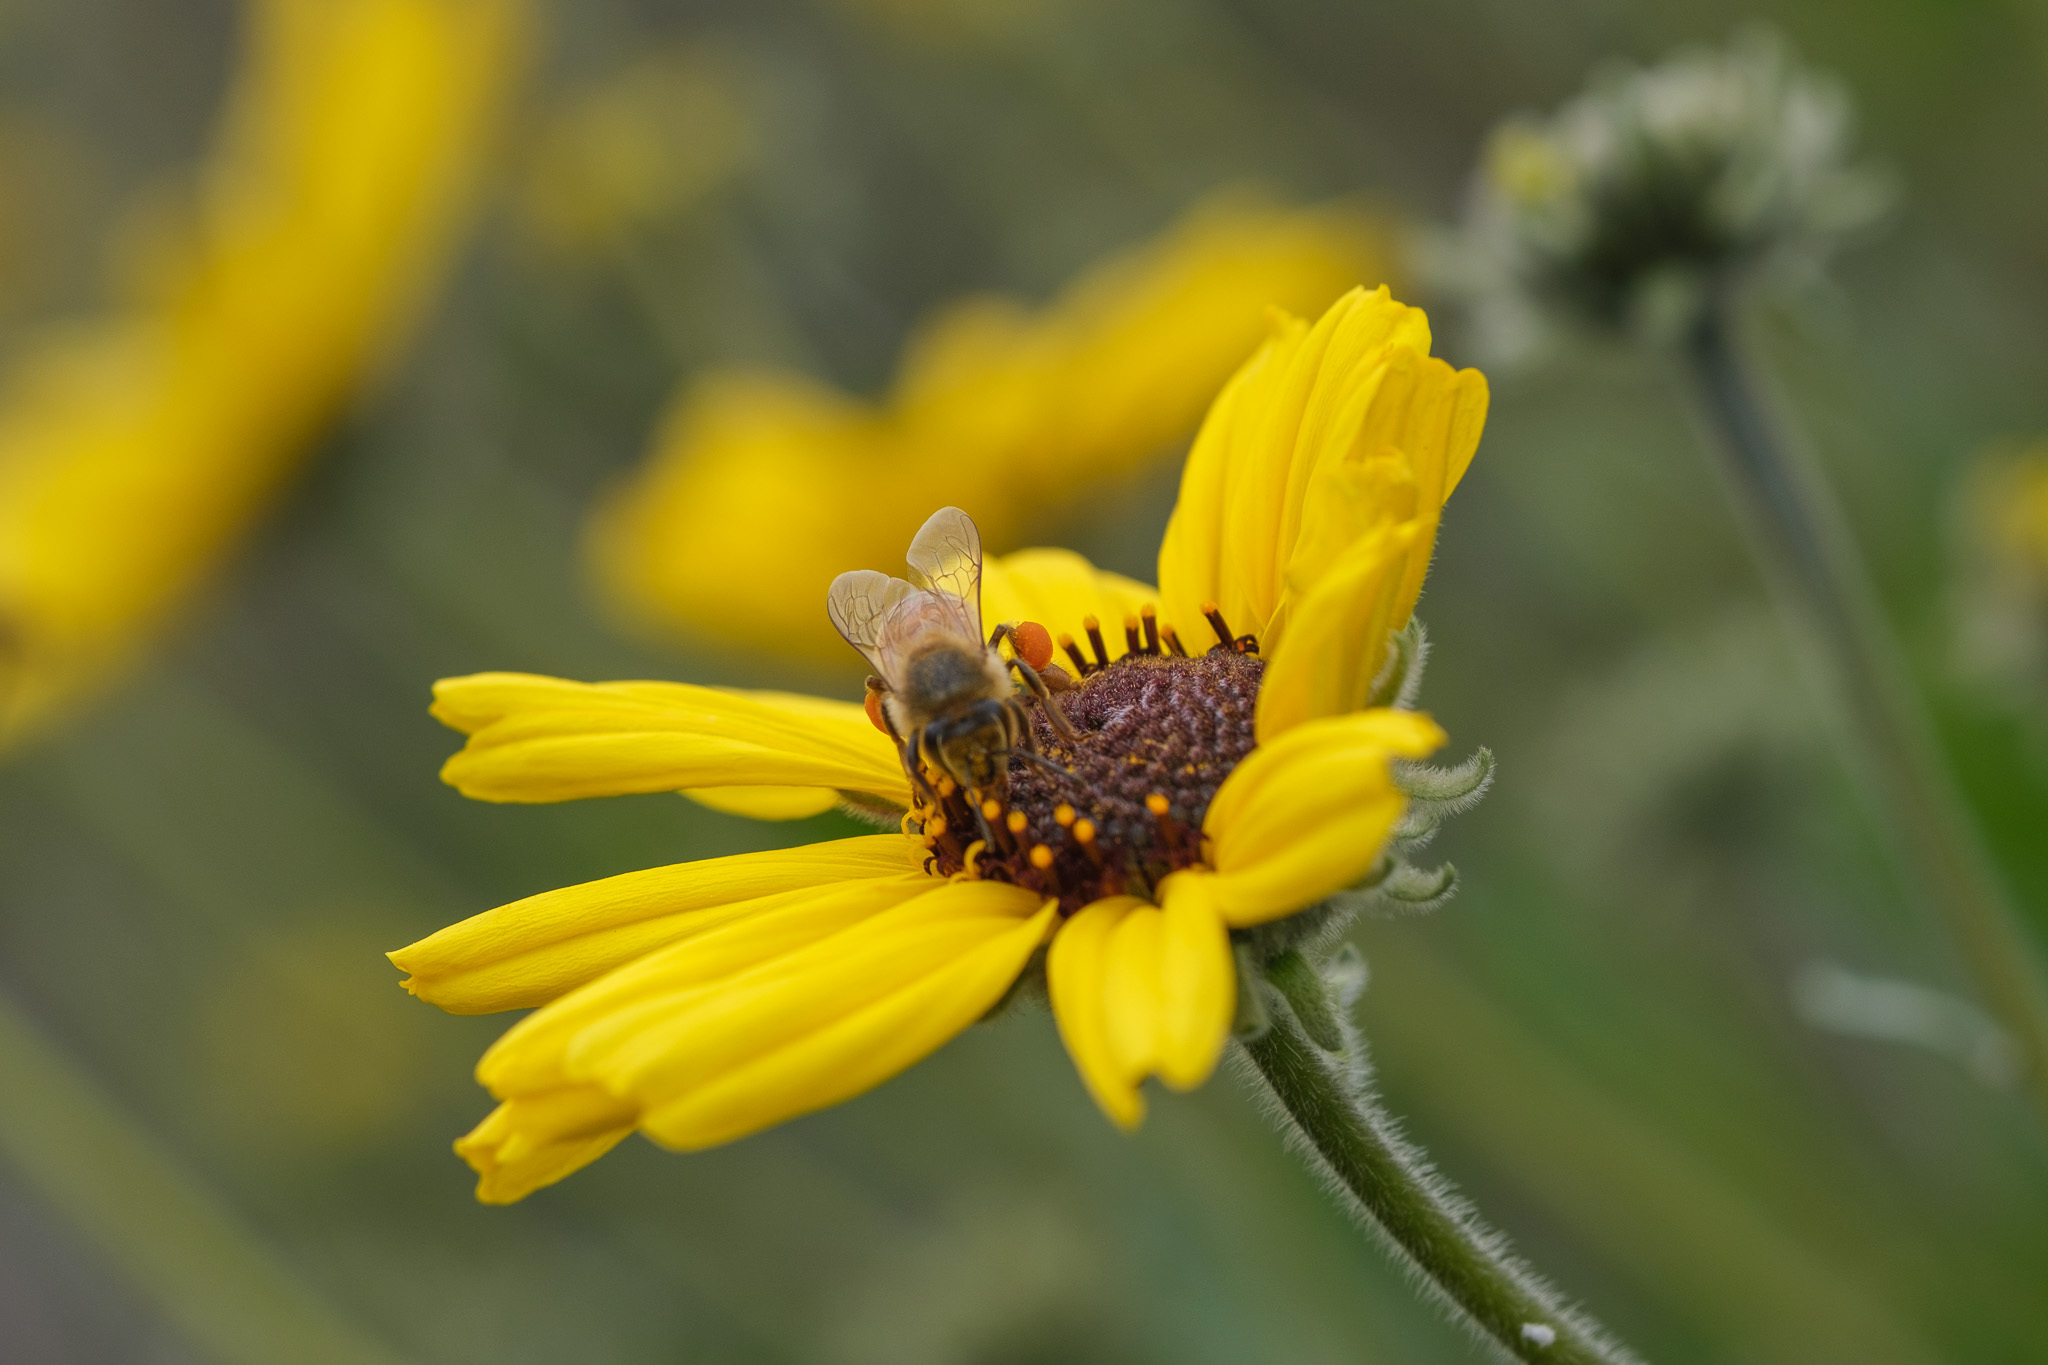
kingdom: Plantae
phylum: Tracheophyta
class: Magnoliopsida
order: Asterales
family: Asteraceae
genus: Encelia
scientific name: Encelia californica
